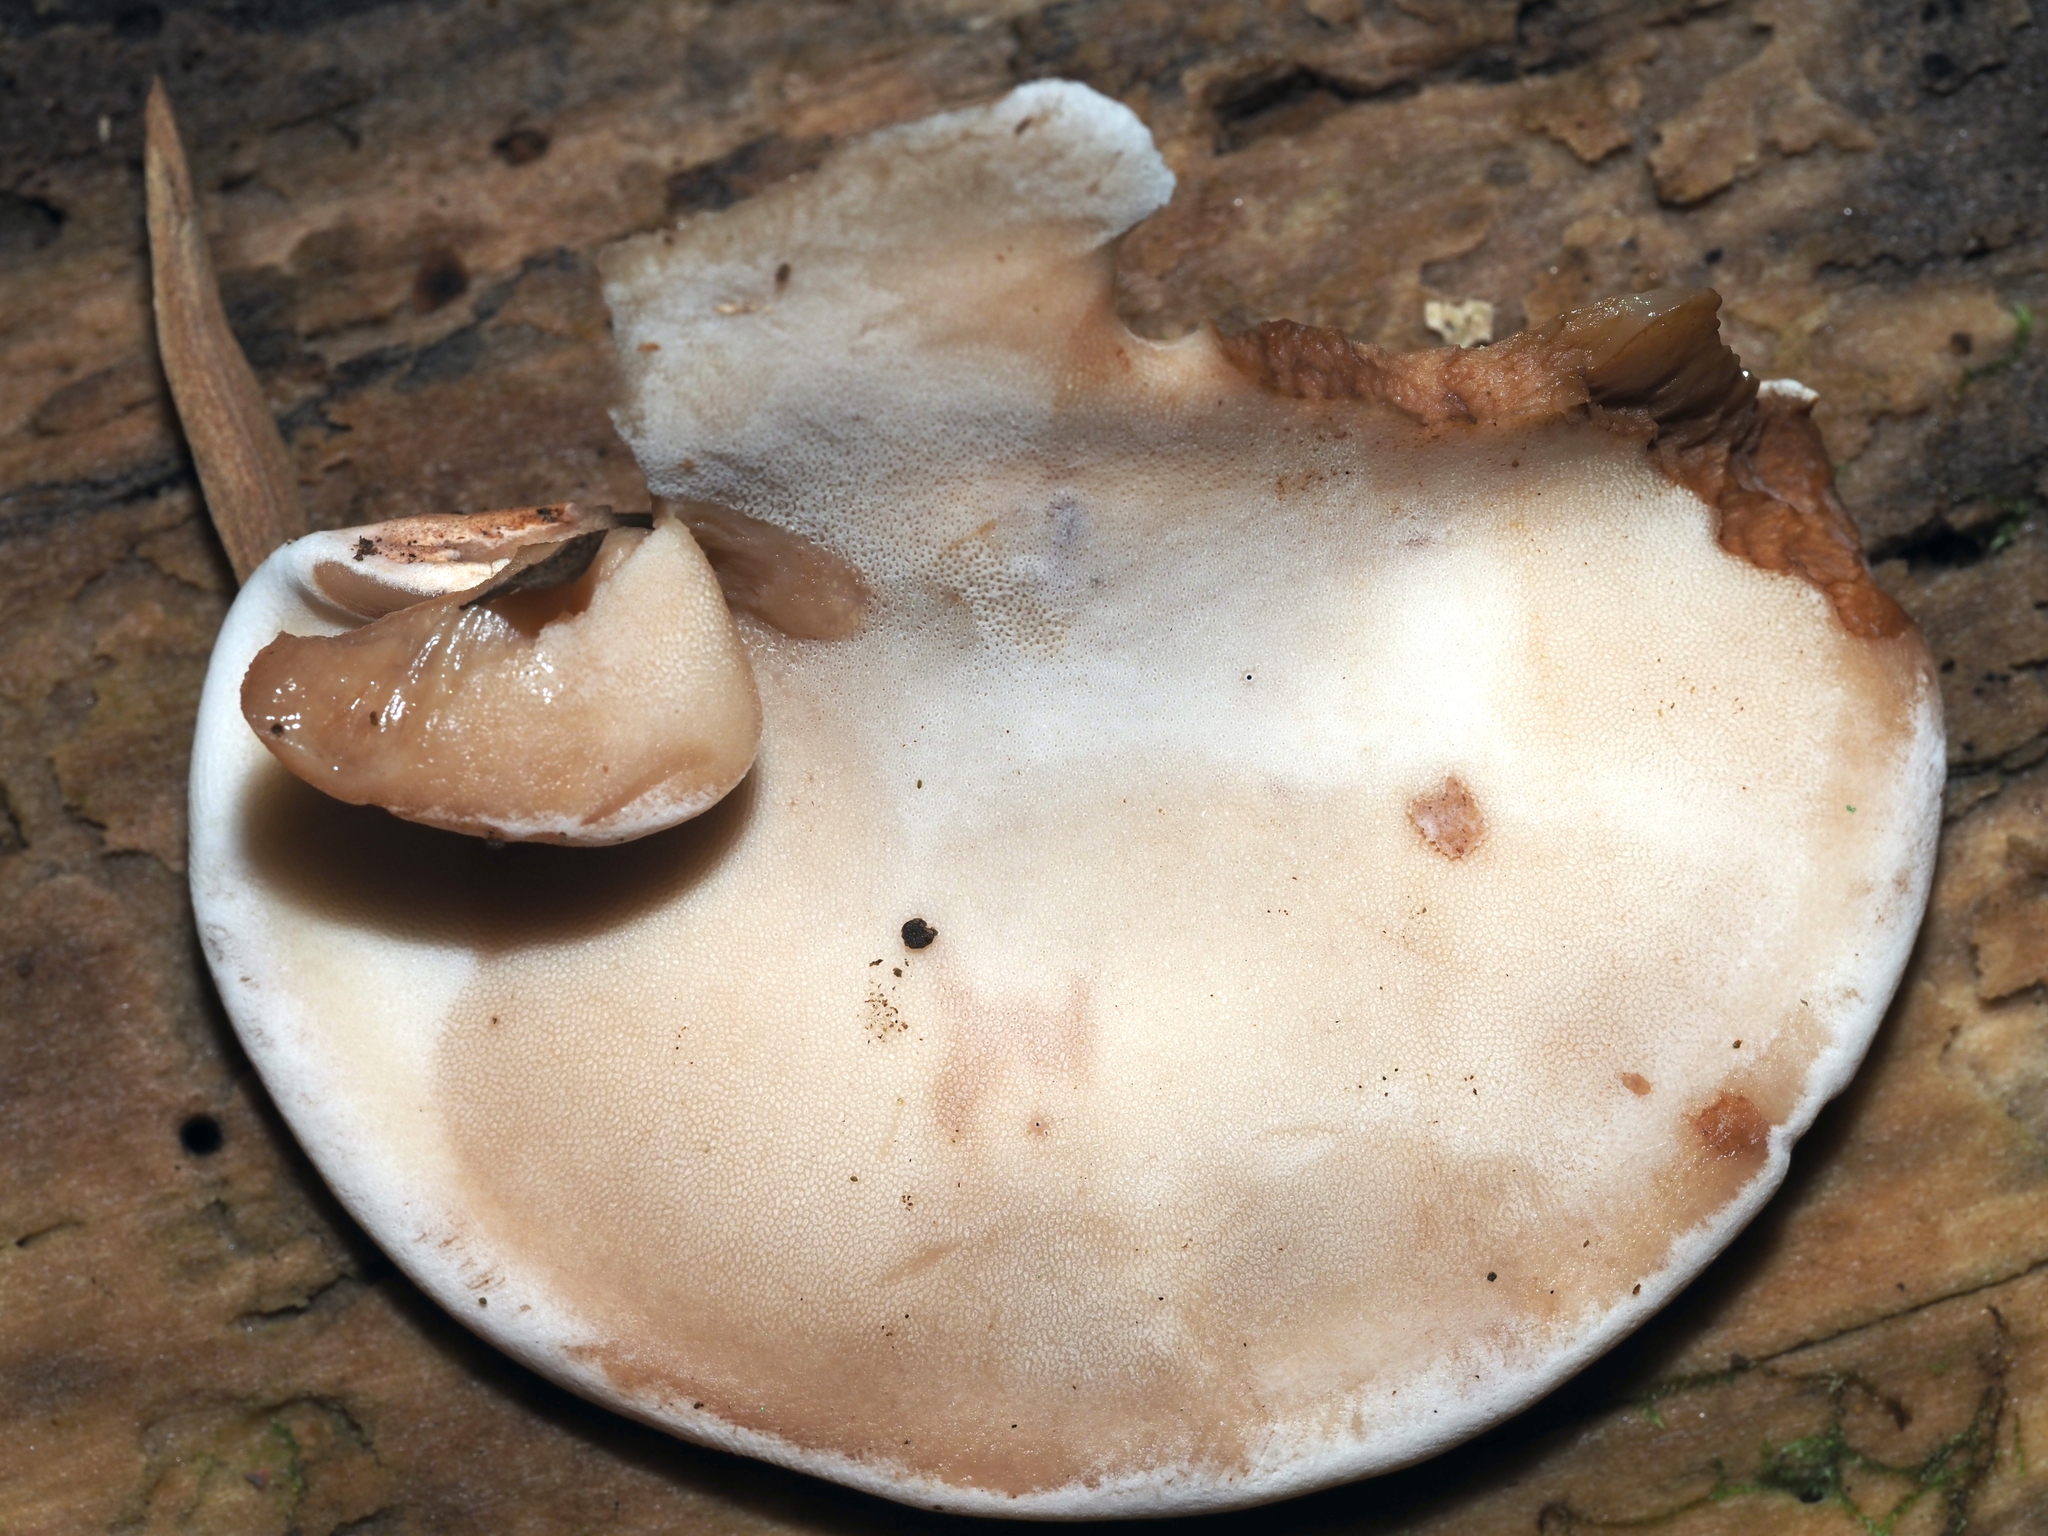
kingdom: Fungi
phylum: Basidiomycota
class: Agaricomycetes
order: Polyporales
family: Ischnodermataceae
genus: Ischnoderma
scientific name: Ischnoderma resinosum
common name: Resinous polypore
